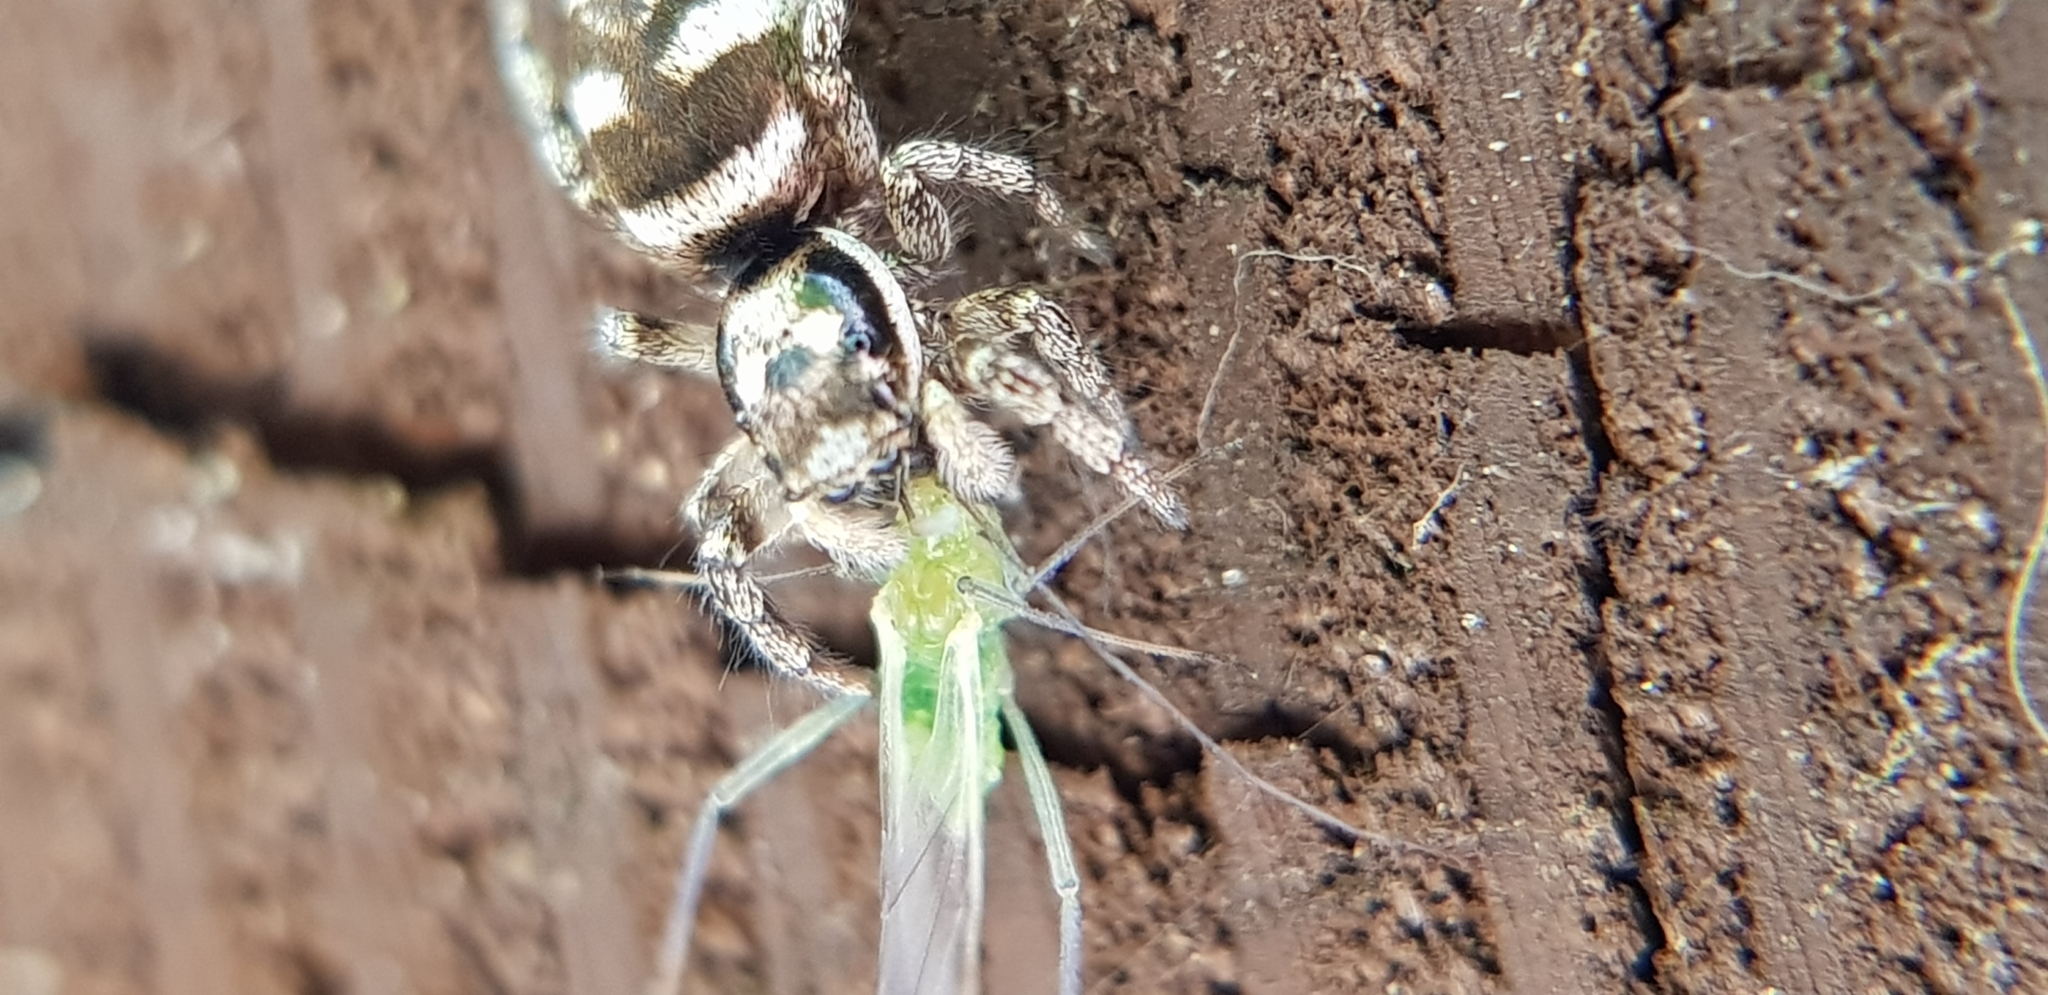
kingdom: Animalia
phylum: Arthropoda
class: Arachnida
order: Araneae
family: Salticidae
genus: Salticus
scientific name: Salticus scenicus
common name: Zebra jumper
